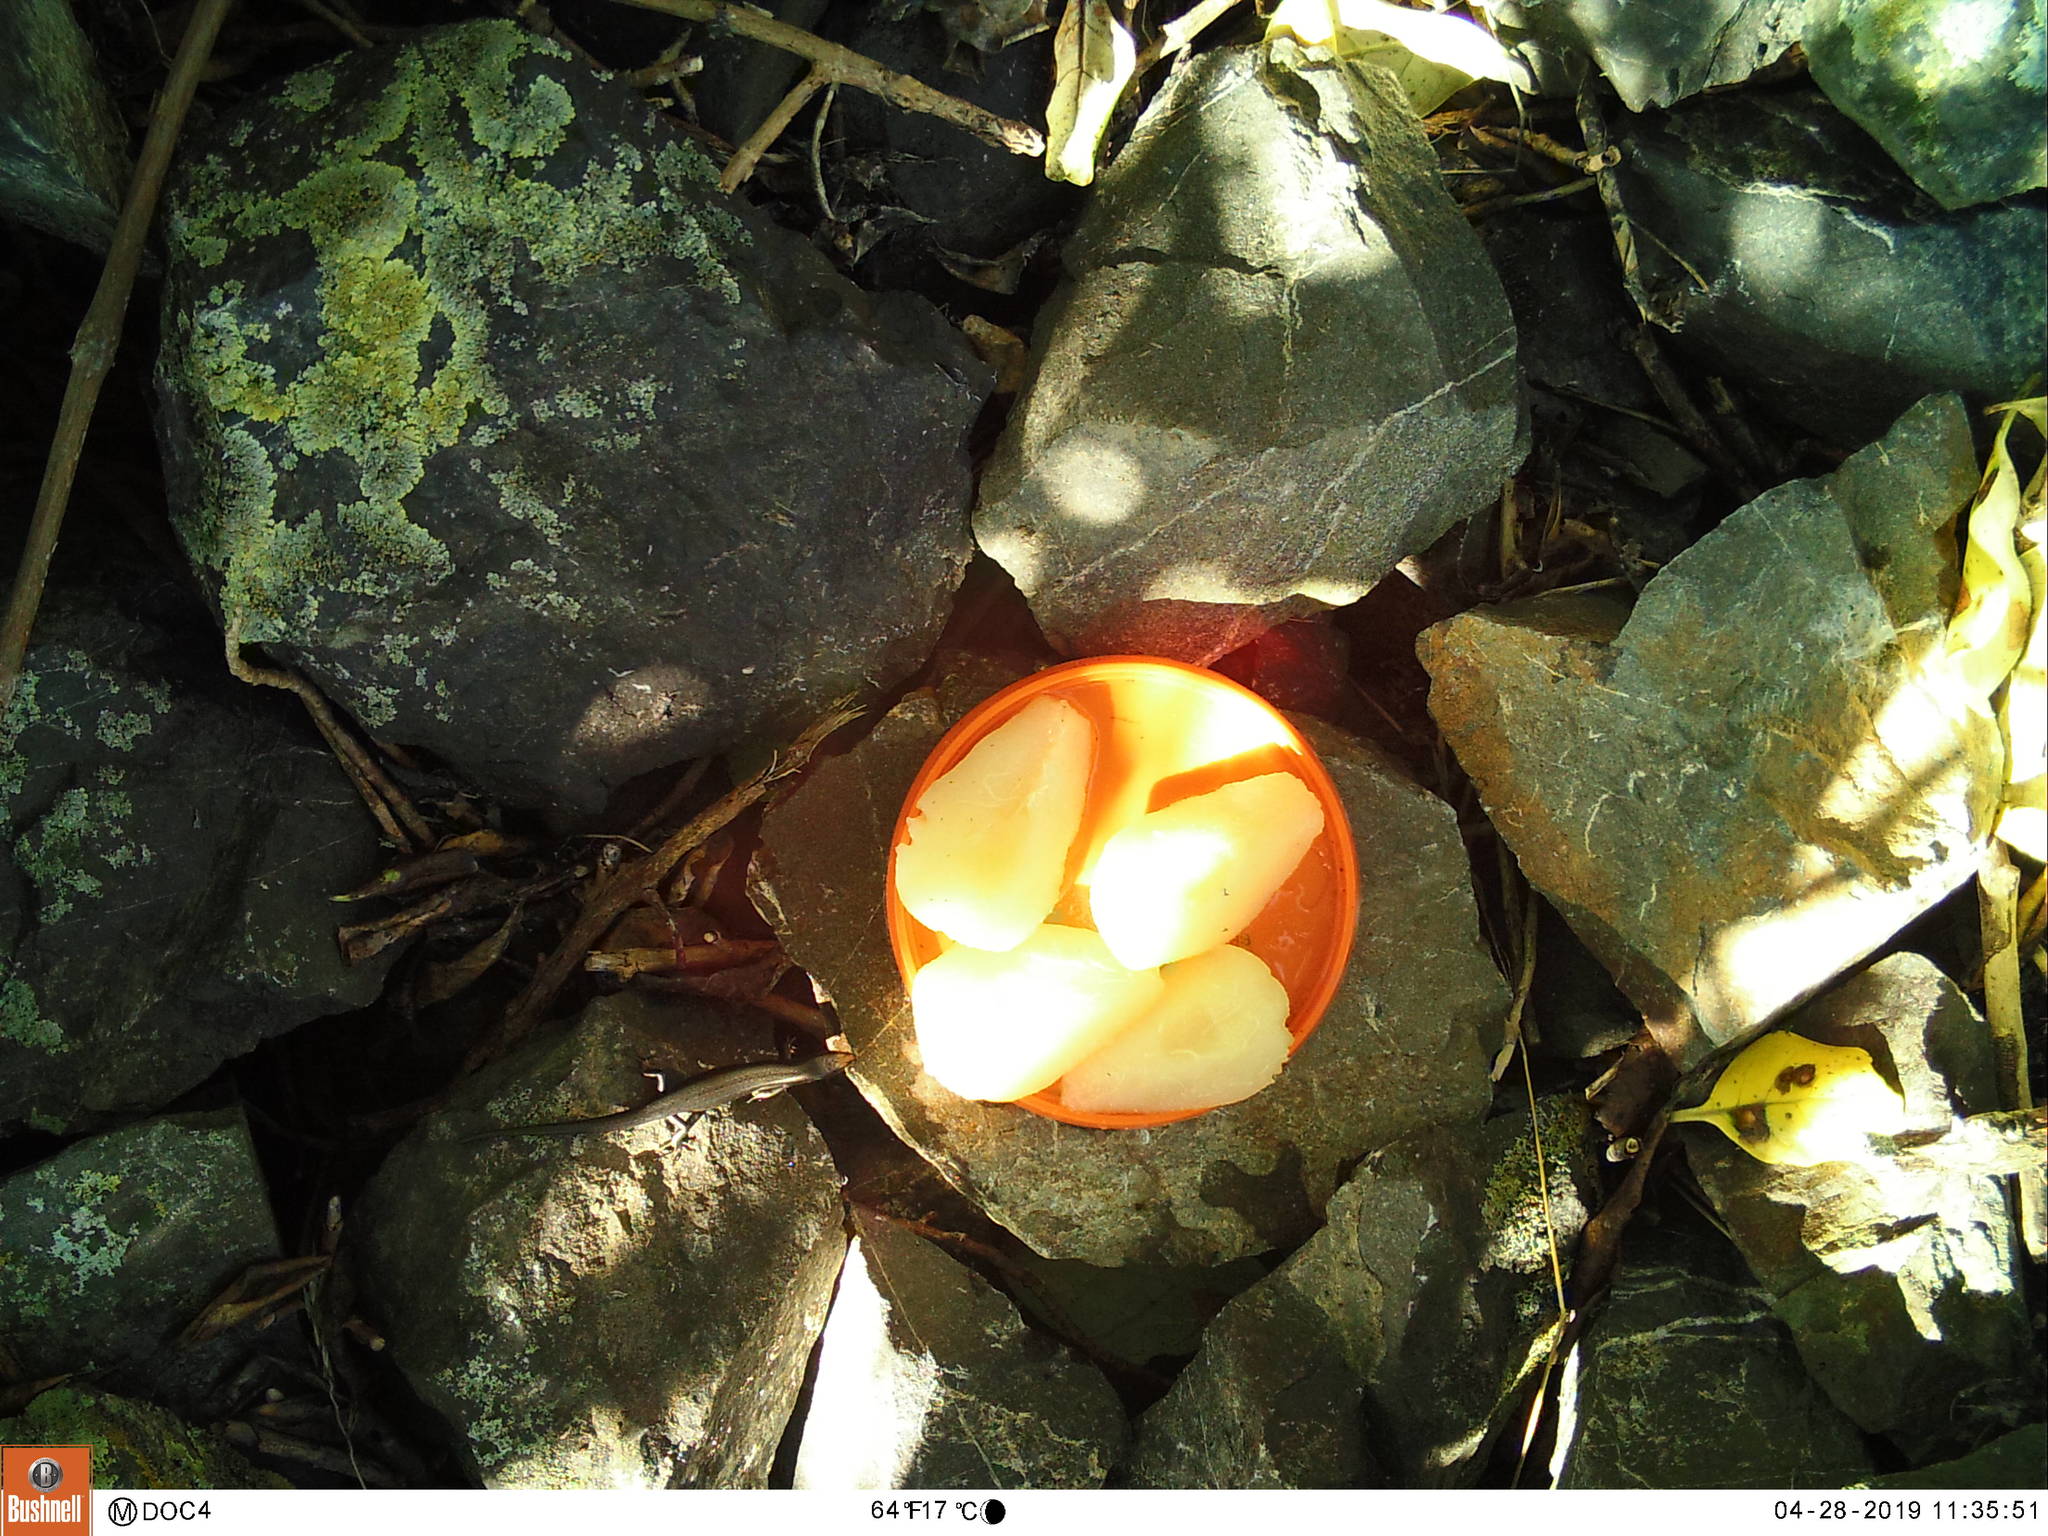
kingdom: Animalia
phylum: Chordata
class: Squamata
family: Scincidae
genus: Oligosoma
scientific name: Oligosoma polychroma
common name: Common new zealand skink
